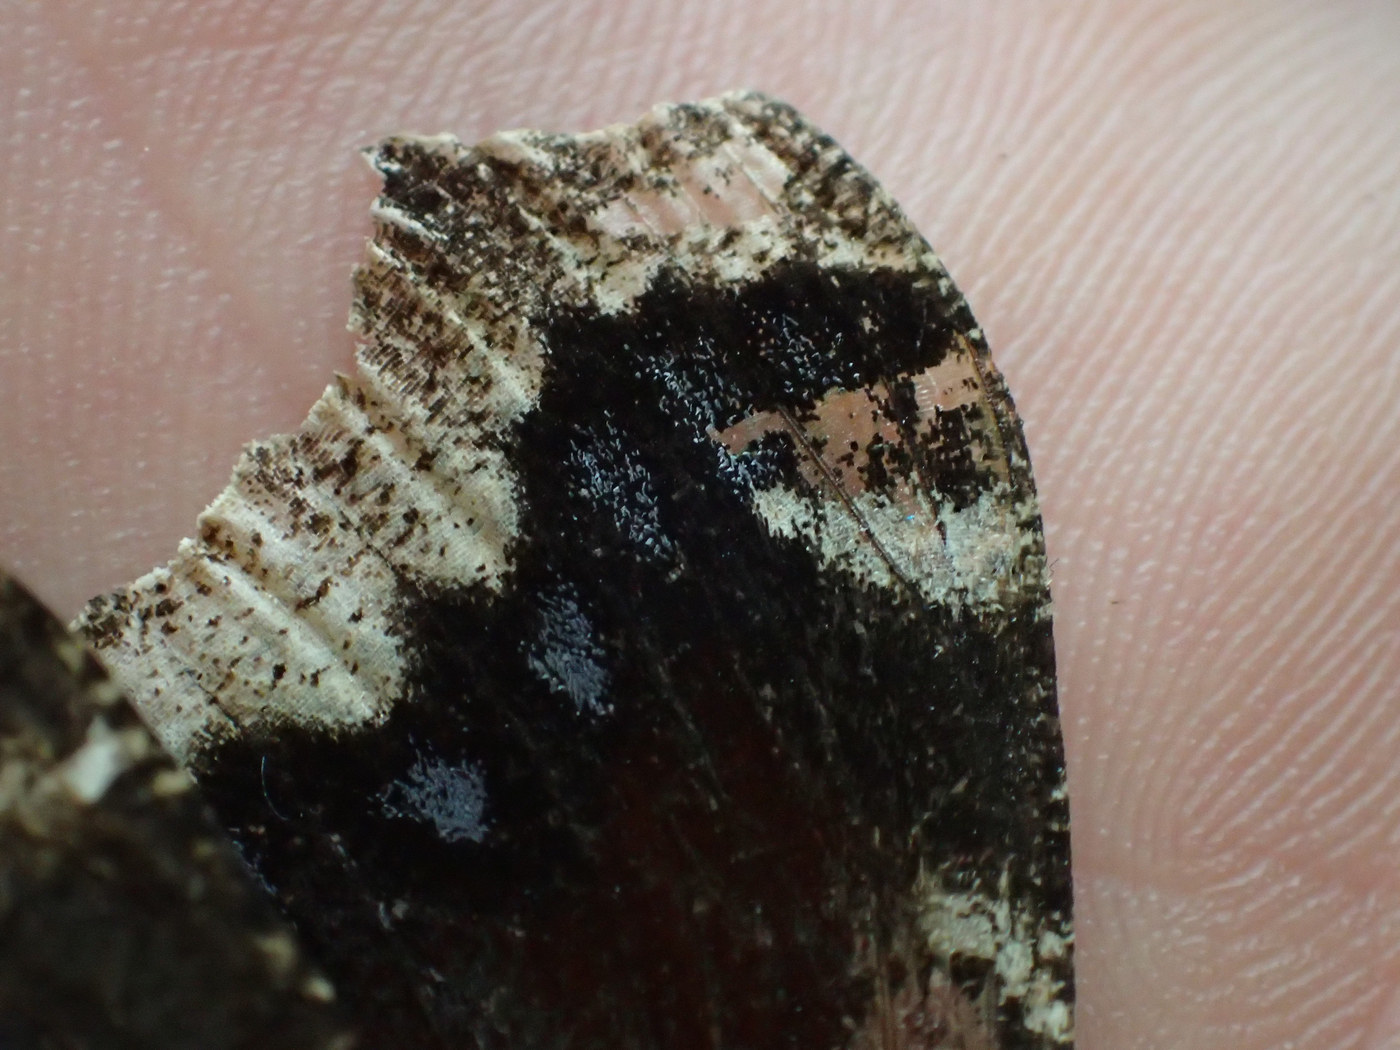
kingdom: Animalia
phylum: Arthropoda
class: Insecta
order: Lepidoptera
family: Nymphalidae
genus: Nymphalis
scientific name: Nymphalis antiopa
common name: Camberwell beauty
